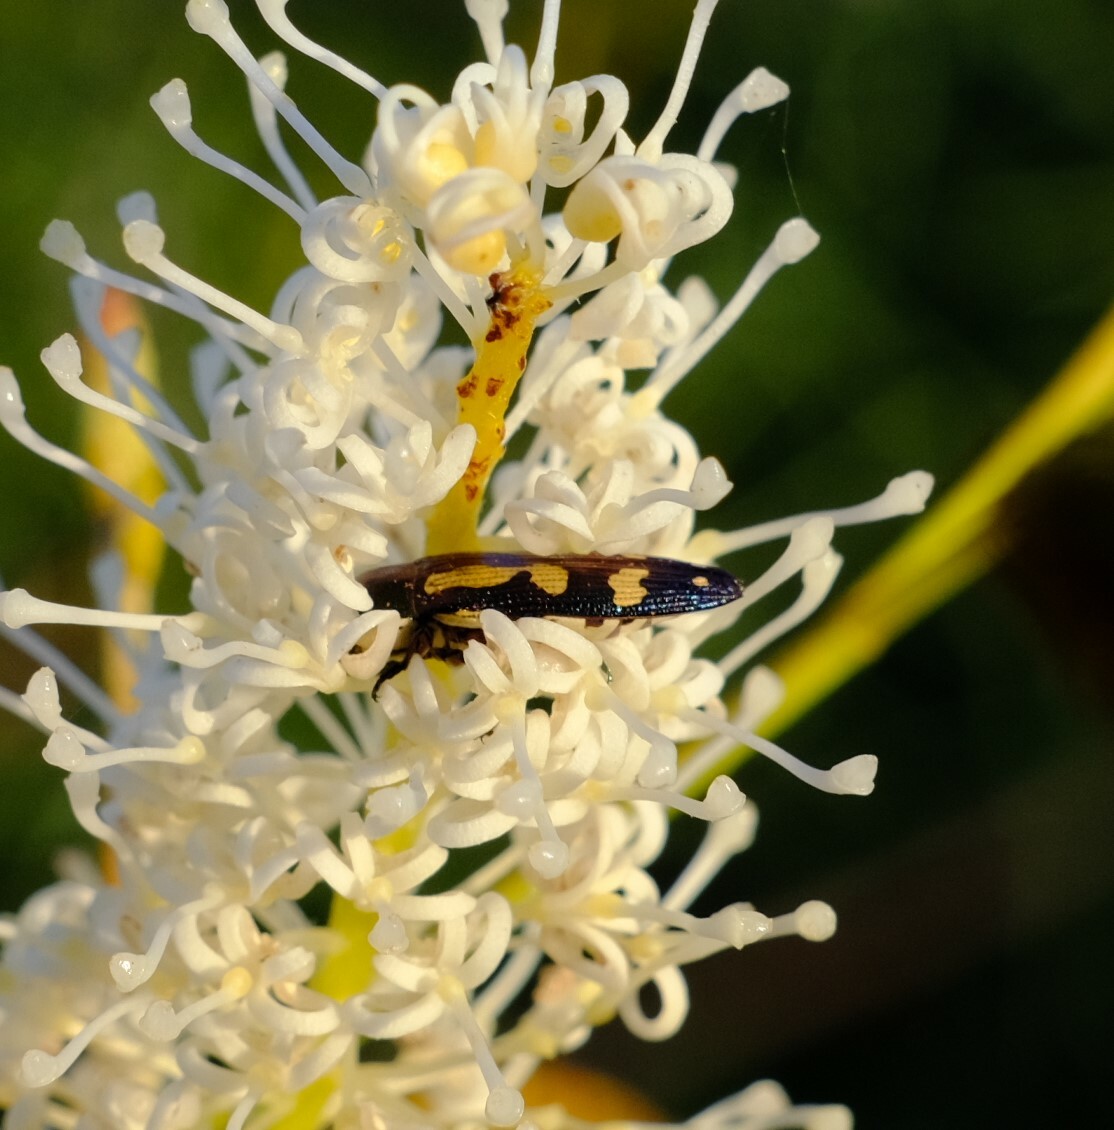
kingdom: Animalia
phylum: Arthropoda
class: Insecta
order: Coleoptera
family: Buprestidae
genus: Castiarina
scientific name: Castiarina picta
